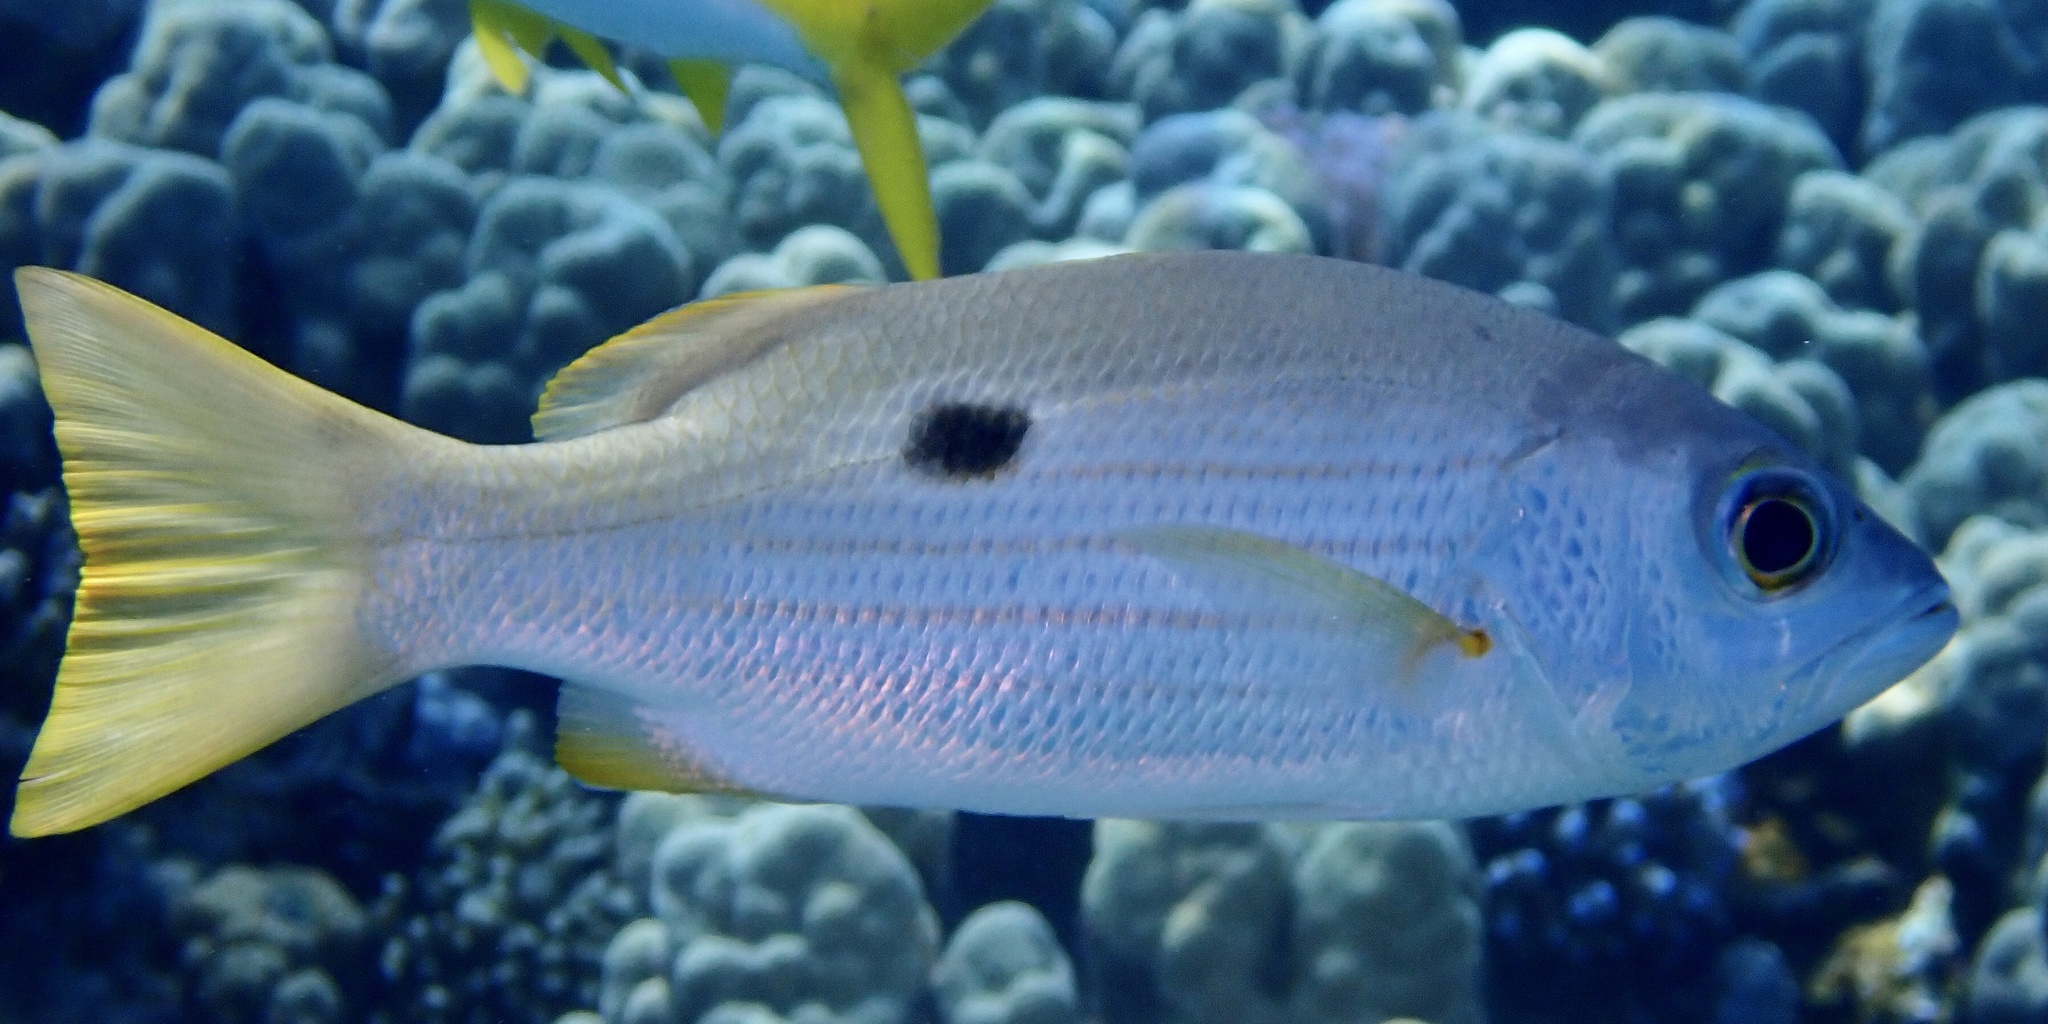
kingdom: Animalia
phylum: Chordata
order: Perciformes
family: Lutjanidae
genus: Lutjanus
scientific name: Lutjanus ehrenbergii
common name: Blackspot snapper
